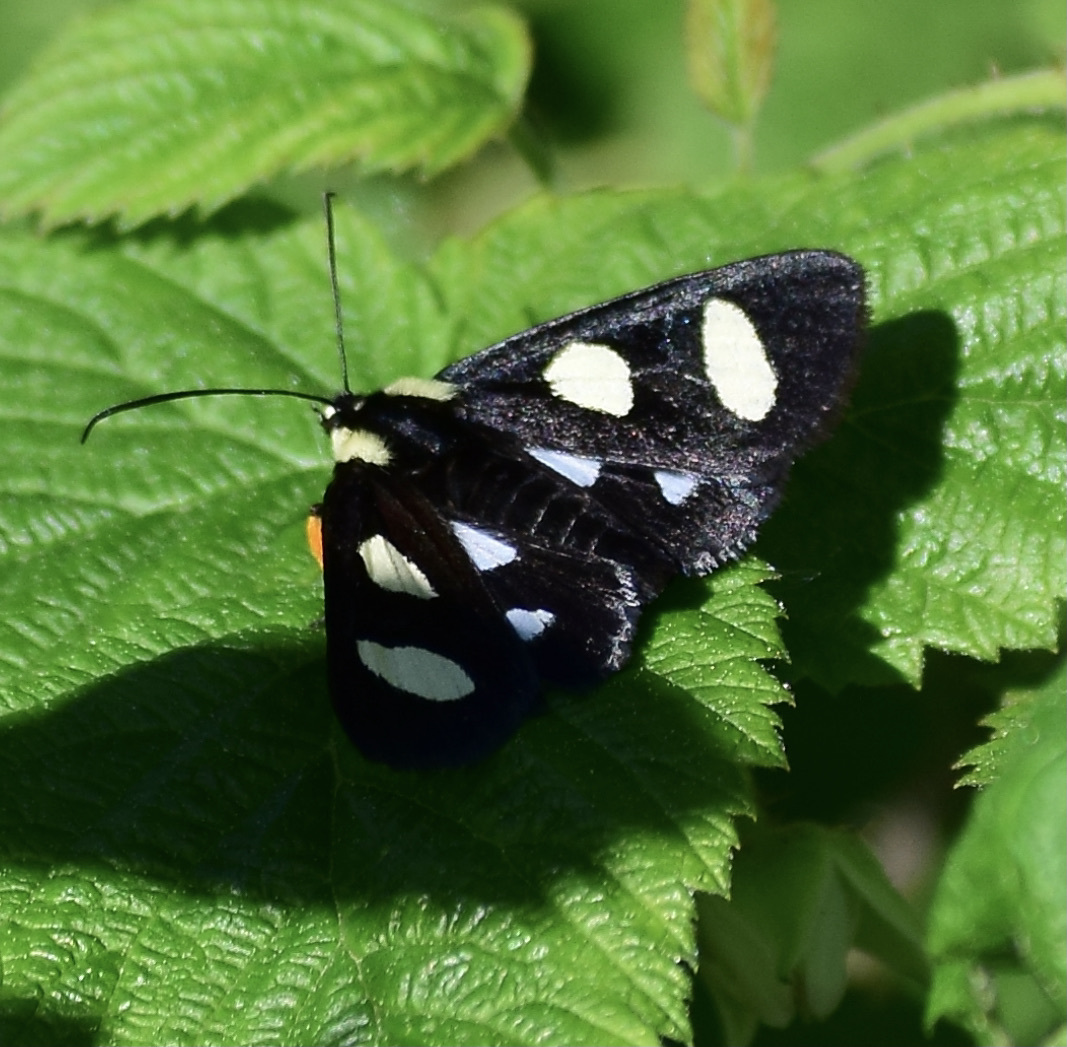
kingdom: Animalia
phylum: Arthropoda
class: Insecta
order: Lepidoptera
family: Noctuidae
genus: Alypia
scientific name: Alypia octomaculata
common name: Eight-spotted forester
